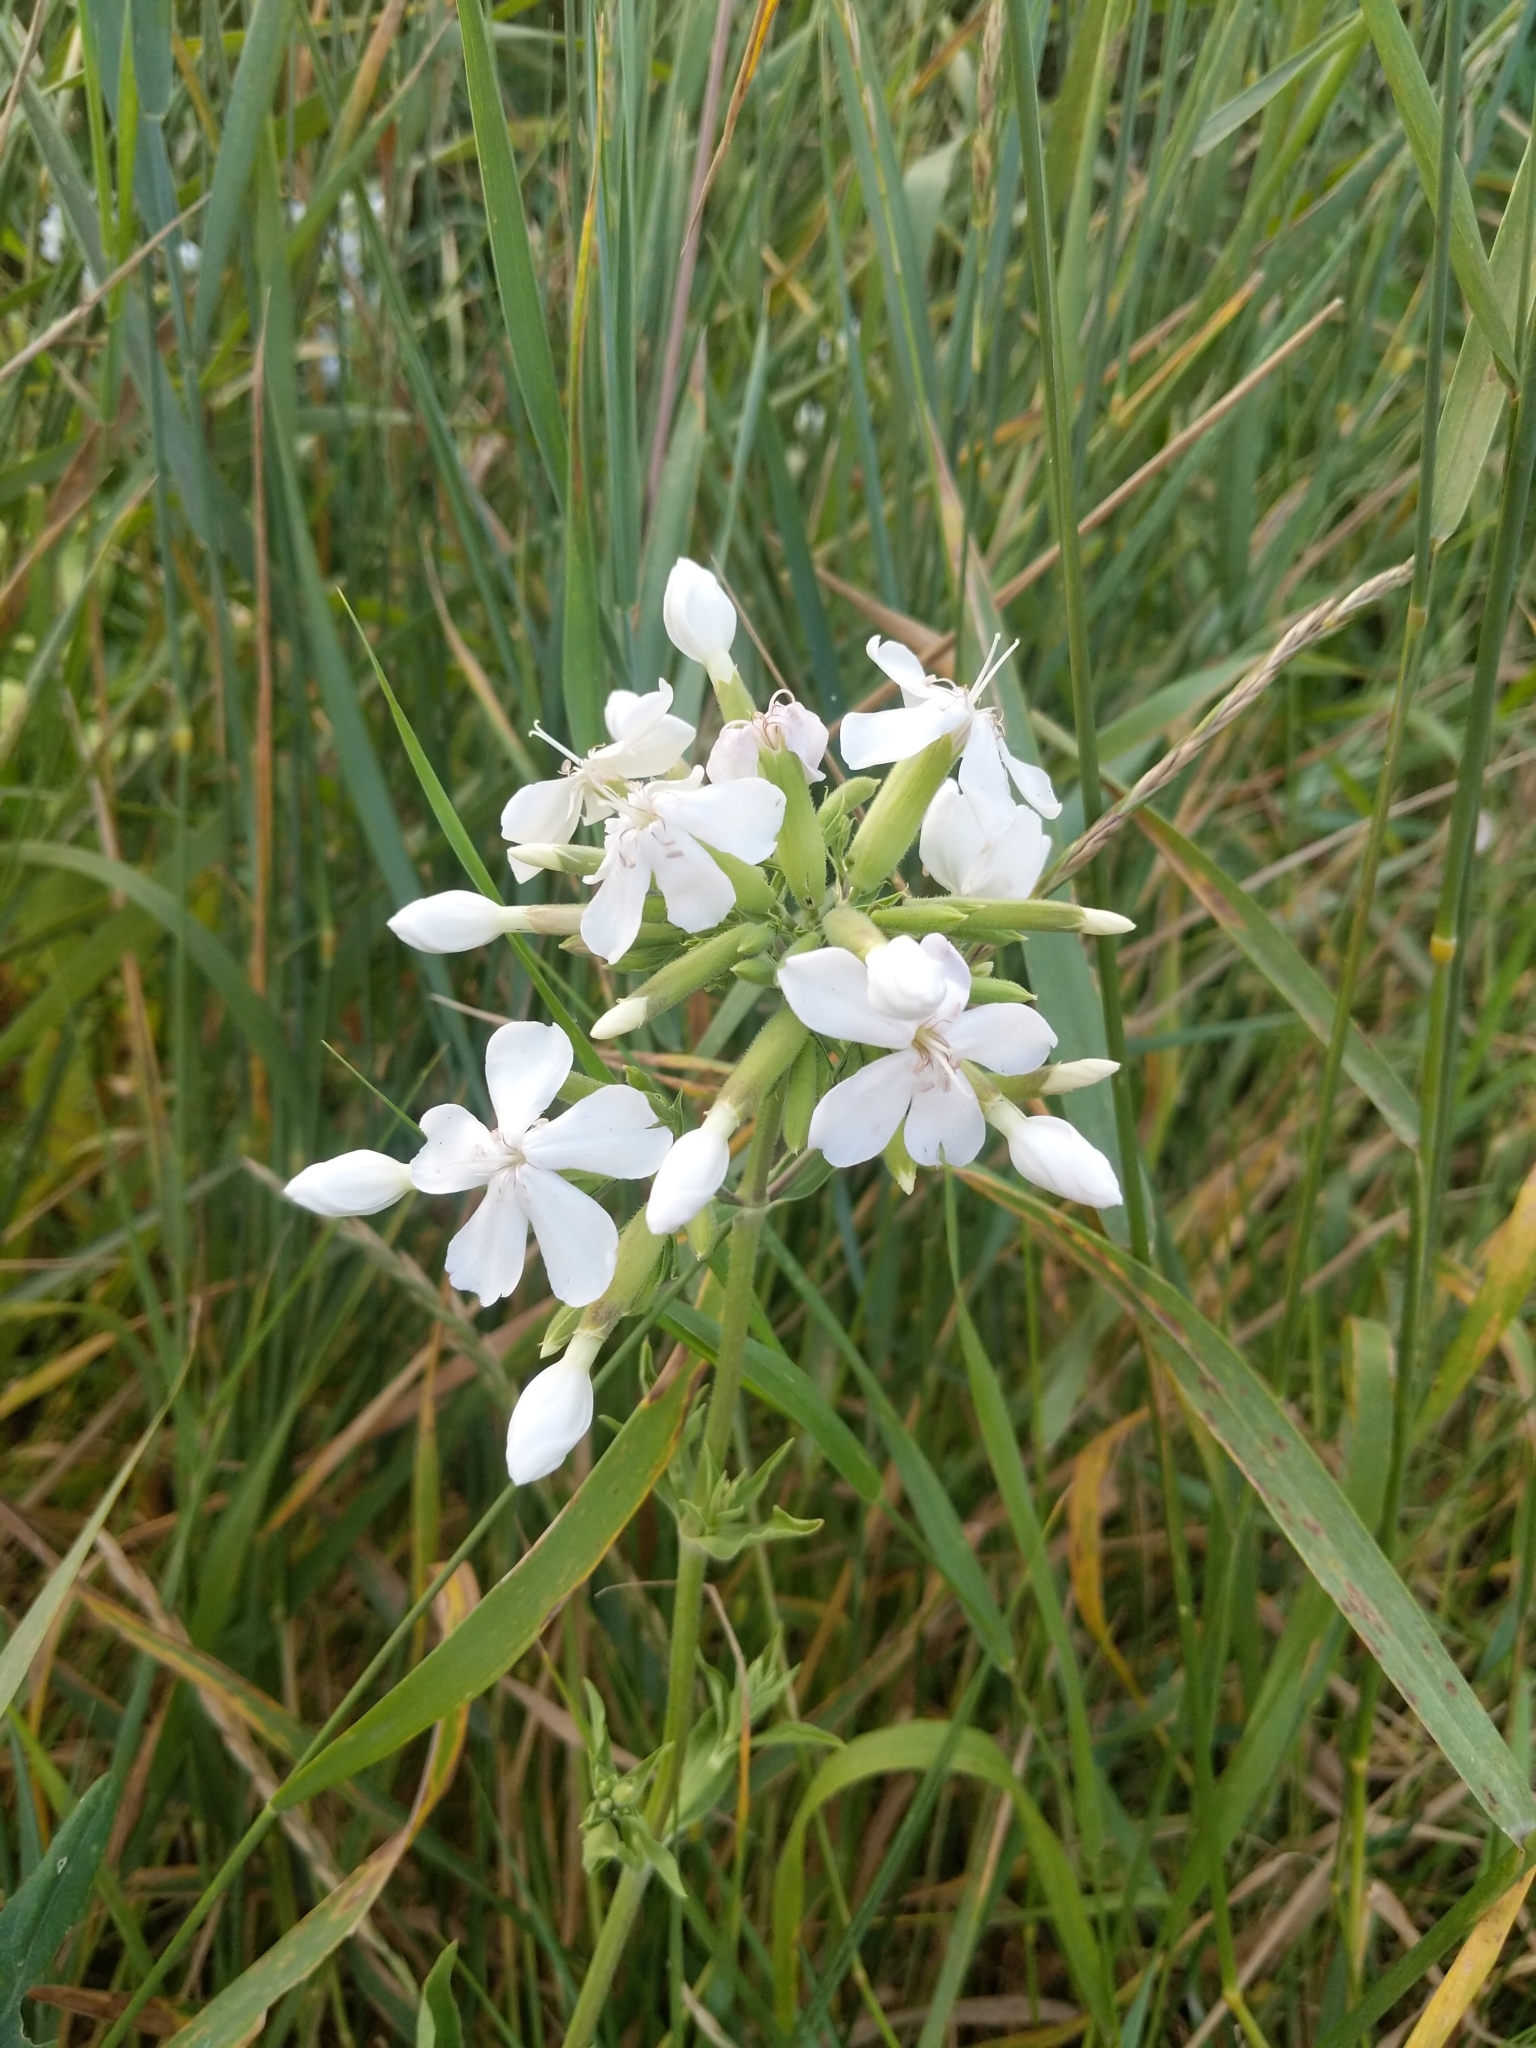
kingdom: Plantae
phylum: Tracheophyta
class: Magnoliopsida
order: Caryophyllales
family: Caryophyllaceae
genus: Saponaria
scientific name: Saponaria officinalis
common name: Soapwort
